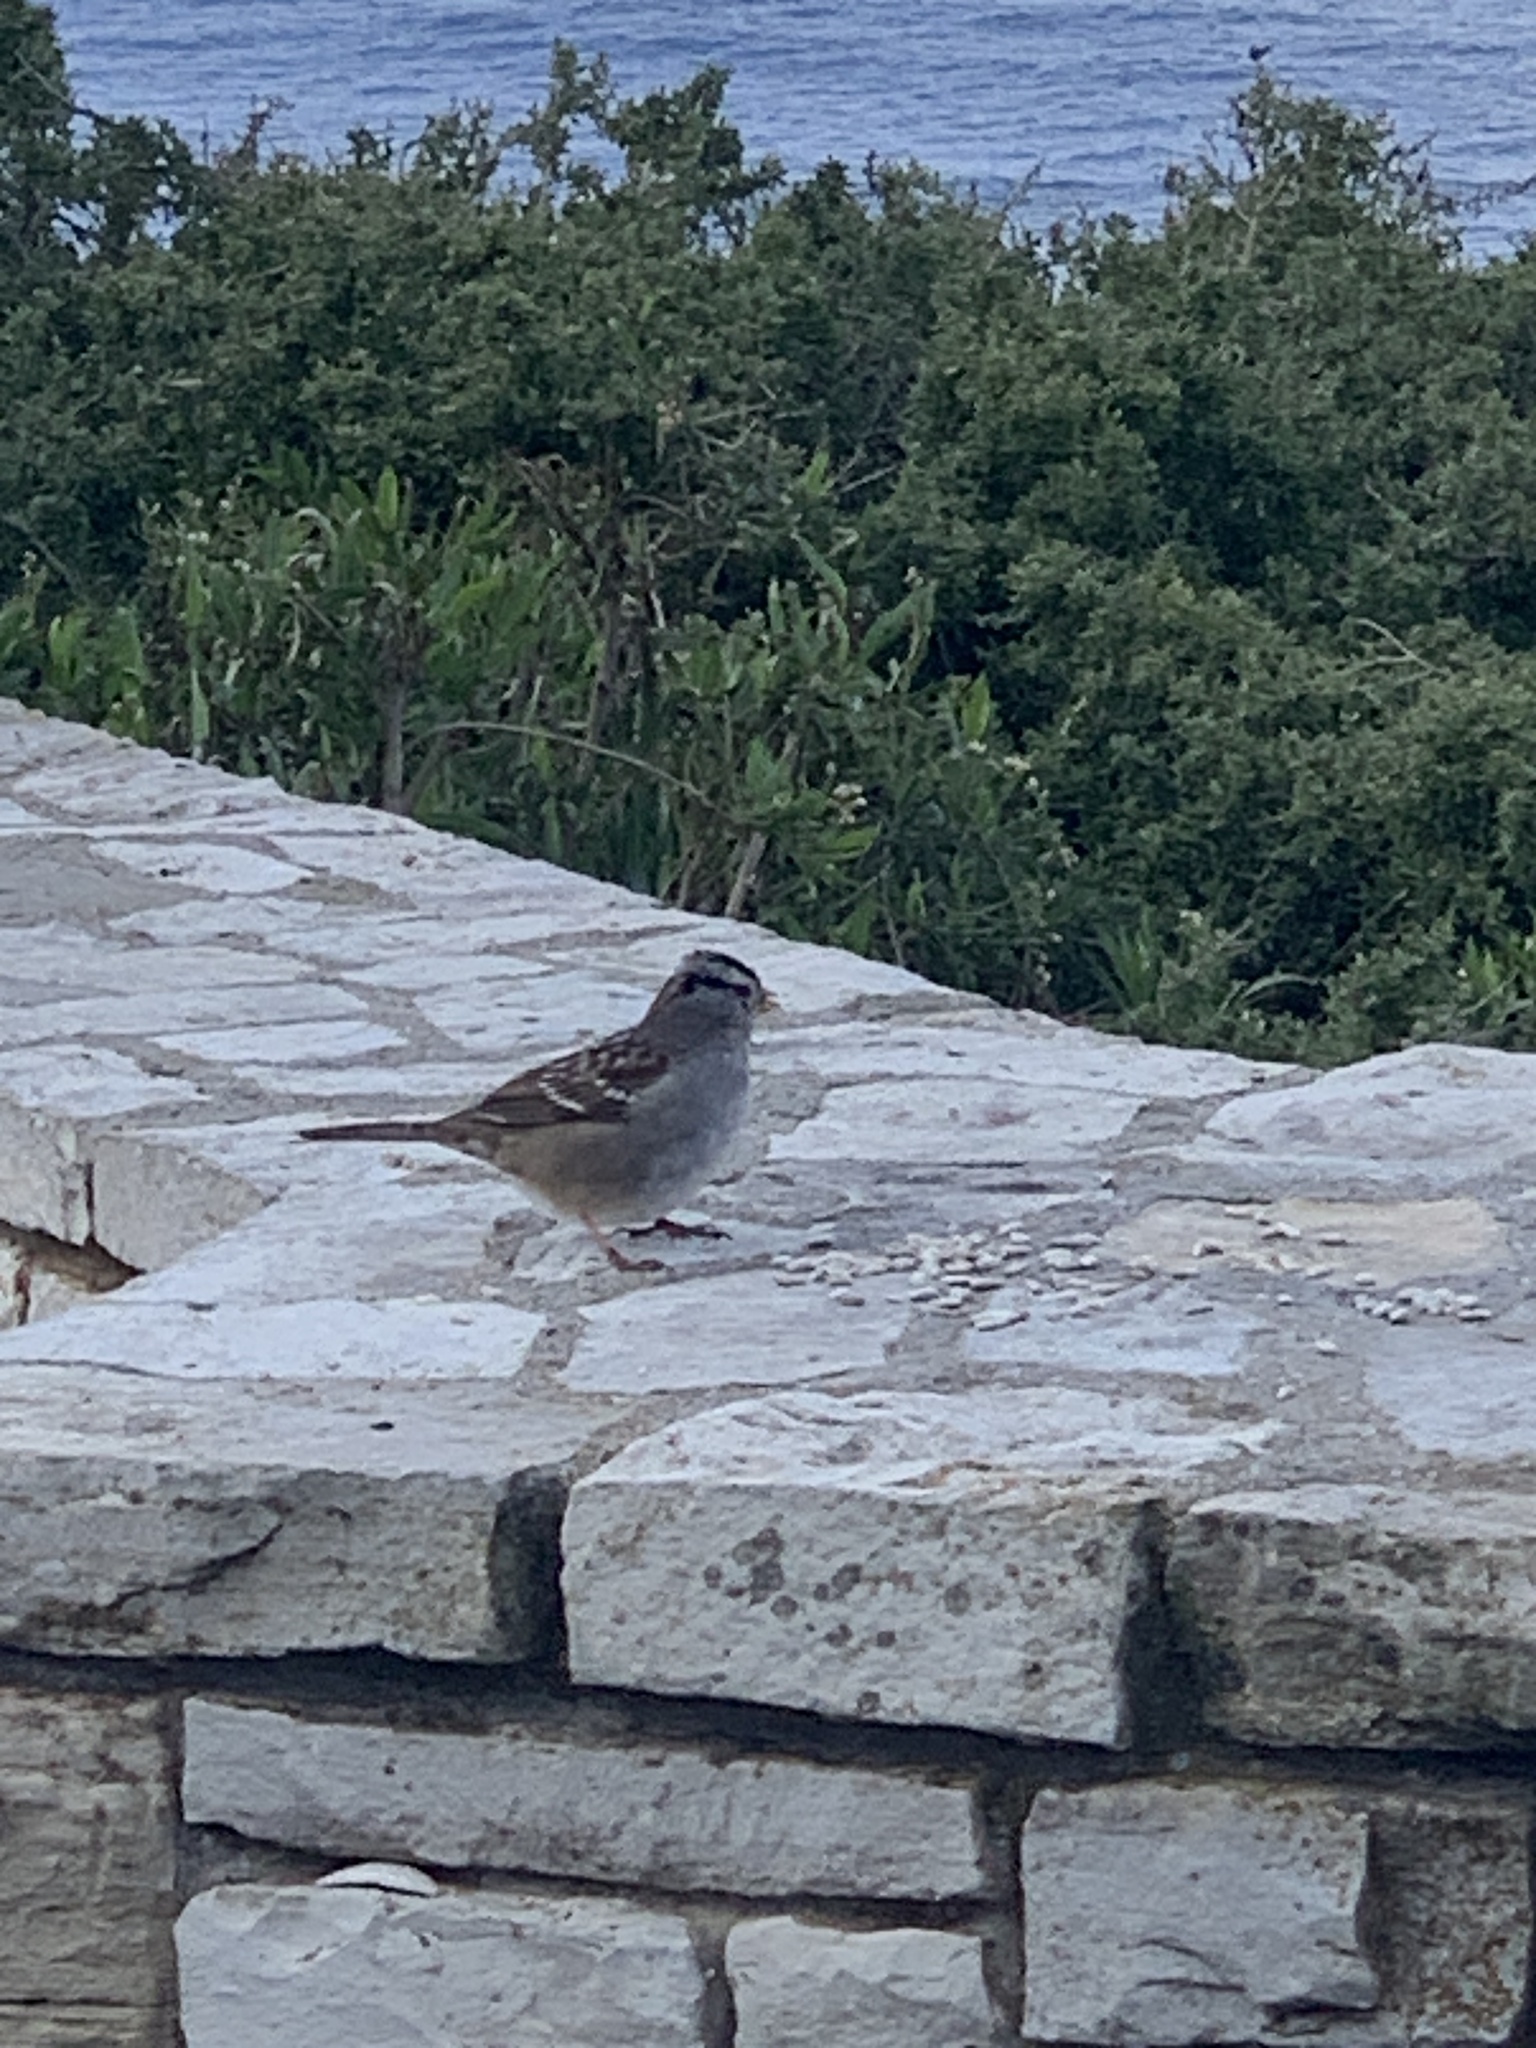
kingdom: Animalia
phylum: Chordata
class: Aves
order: Passeriformes
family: Passerellidae
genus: Zonotrichia
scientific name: Zonotrichia leucophrys
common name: White-crowned sparrow
